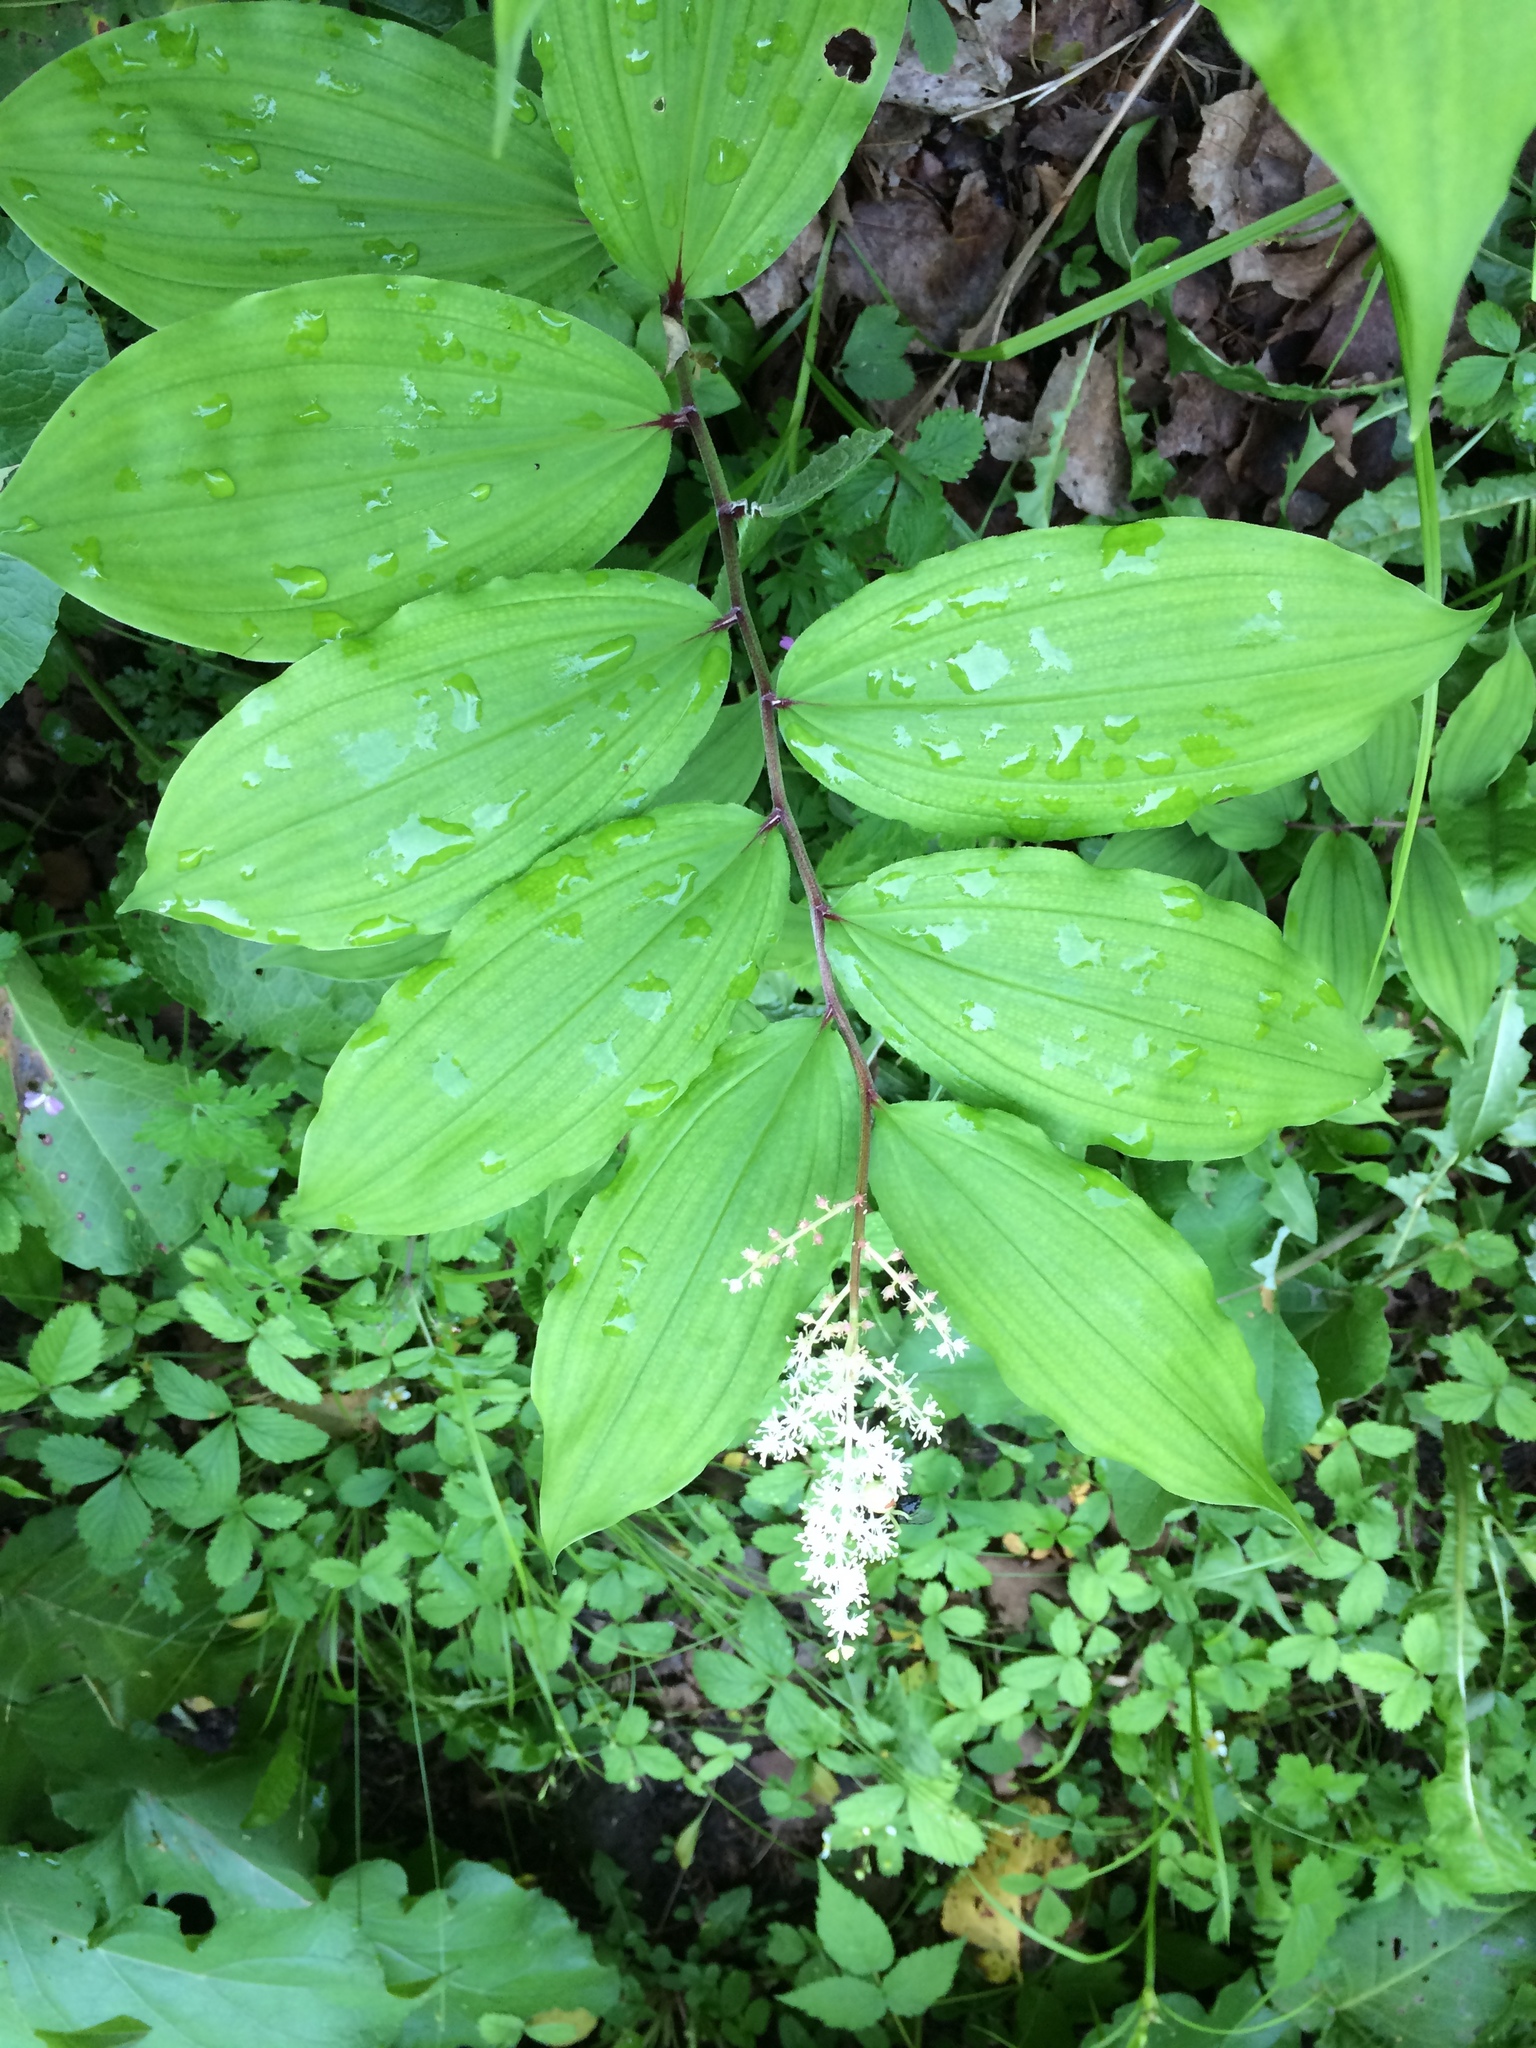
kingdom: Plantae
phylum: Tracheophyta
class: Liliopsida
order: Asparagales
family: Asparagaceae
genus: Maianthemum
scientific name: Maianthemum racemosum
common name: False spikenard
